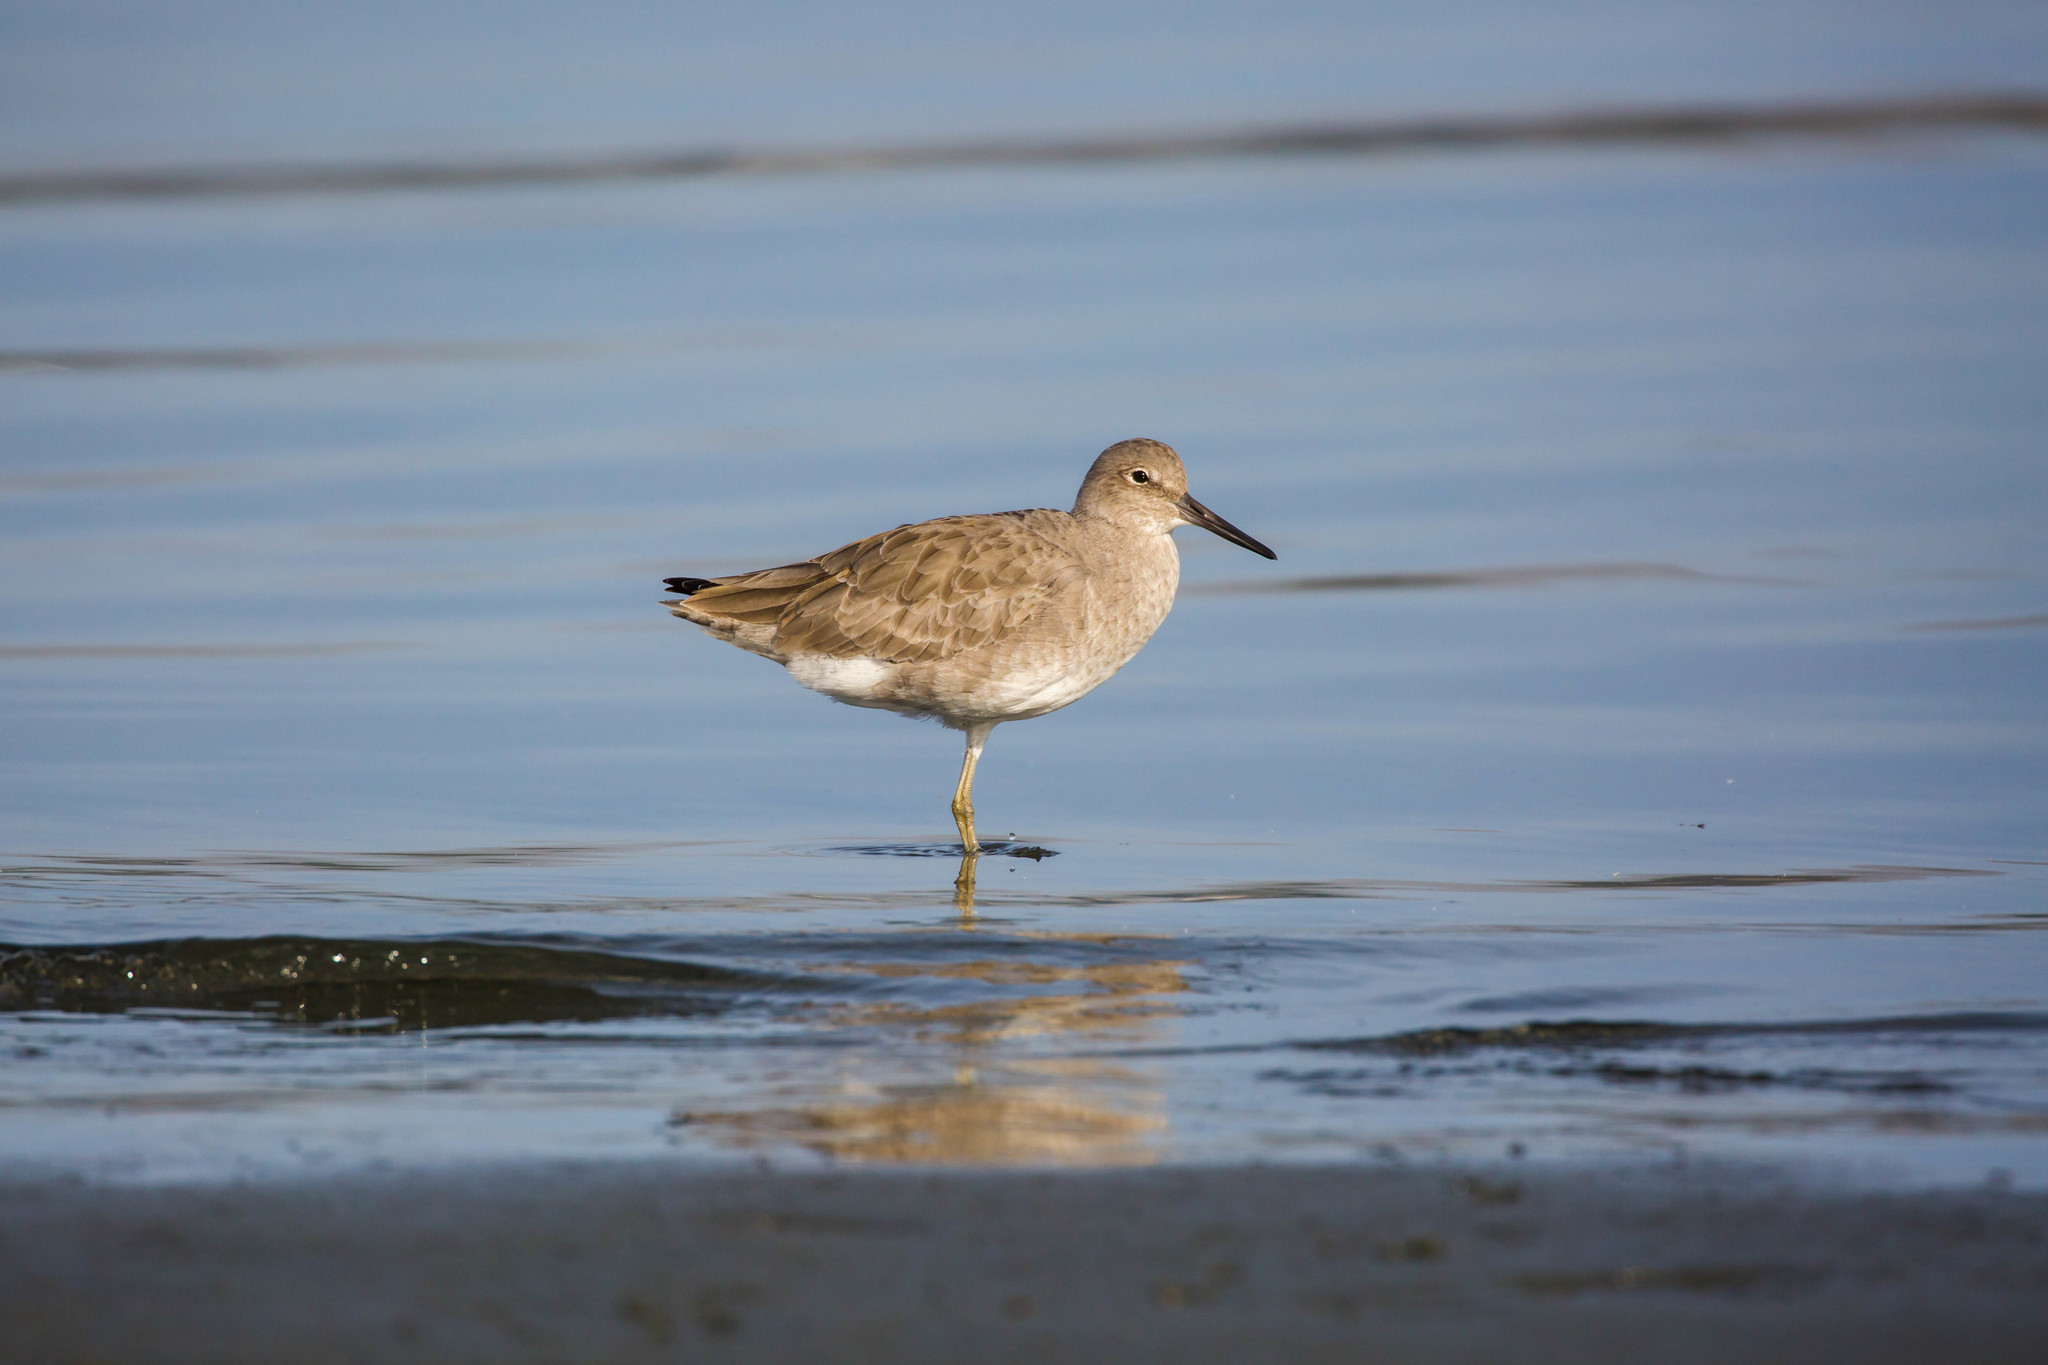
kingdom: Animalia
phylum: Chordata
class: Aves
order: Charadriiformes
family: Scolopacidae
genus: Tringa
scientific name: Tringa semipalmata
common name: Willet
